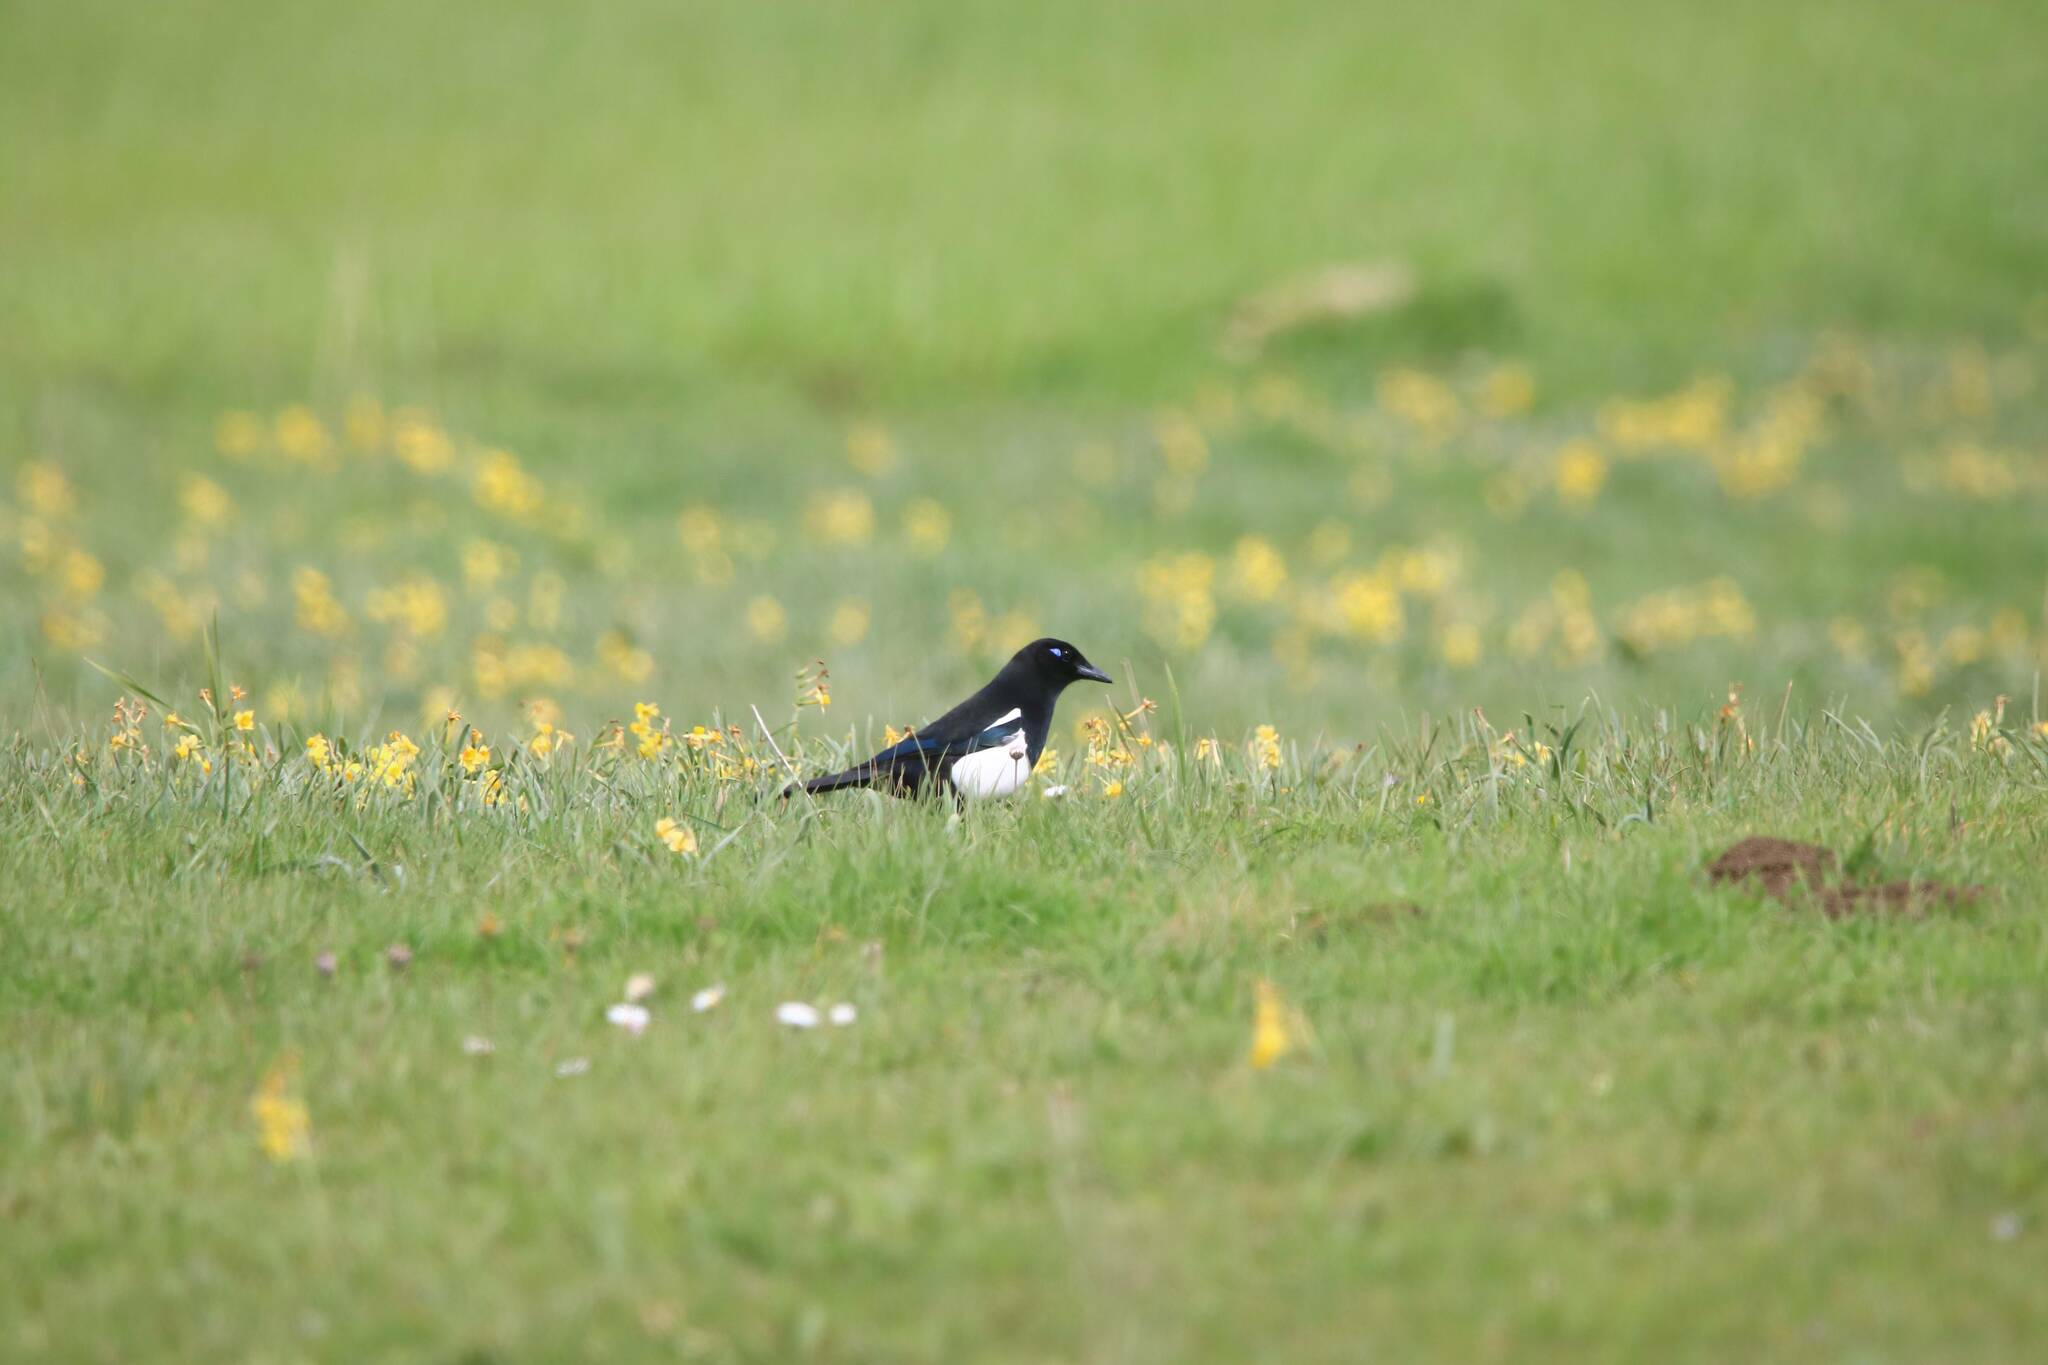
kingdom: Animalia
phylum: Chordata
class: Aves
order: Passeriformes
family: Corvidae
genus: Pica
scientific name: Pica mauritanica
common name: Maghreb magpie
